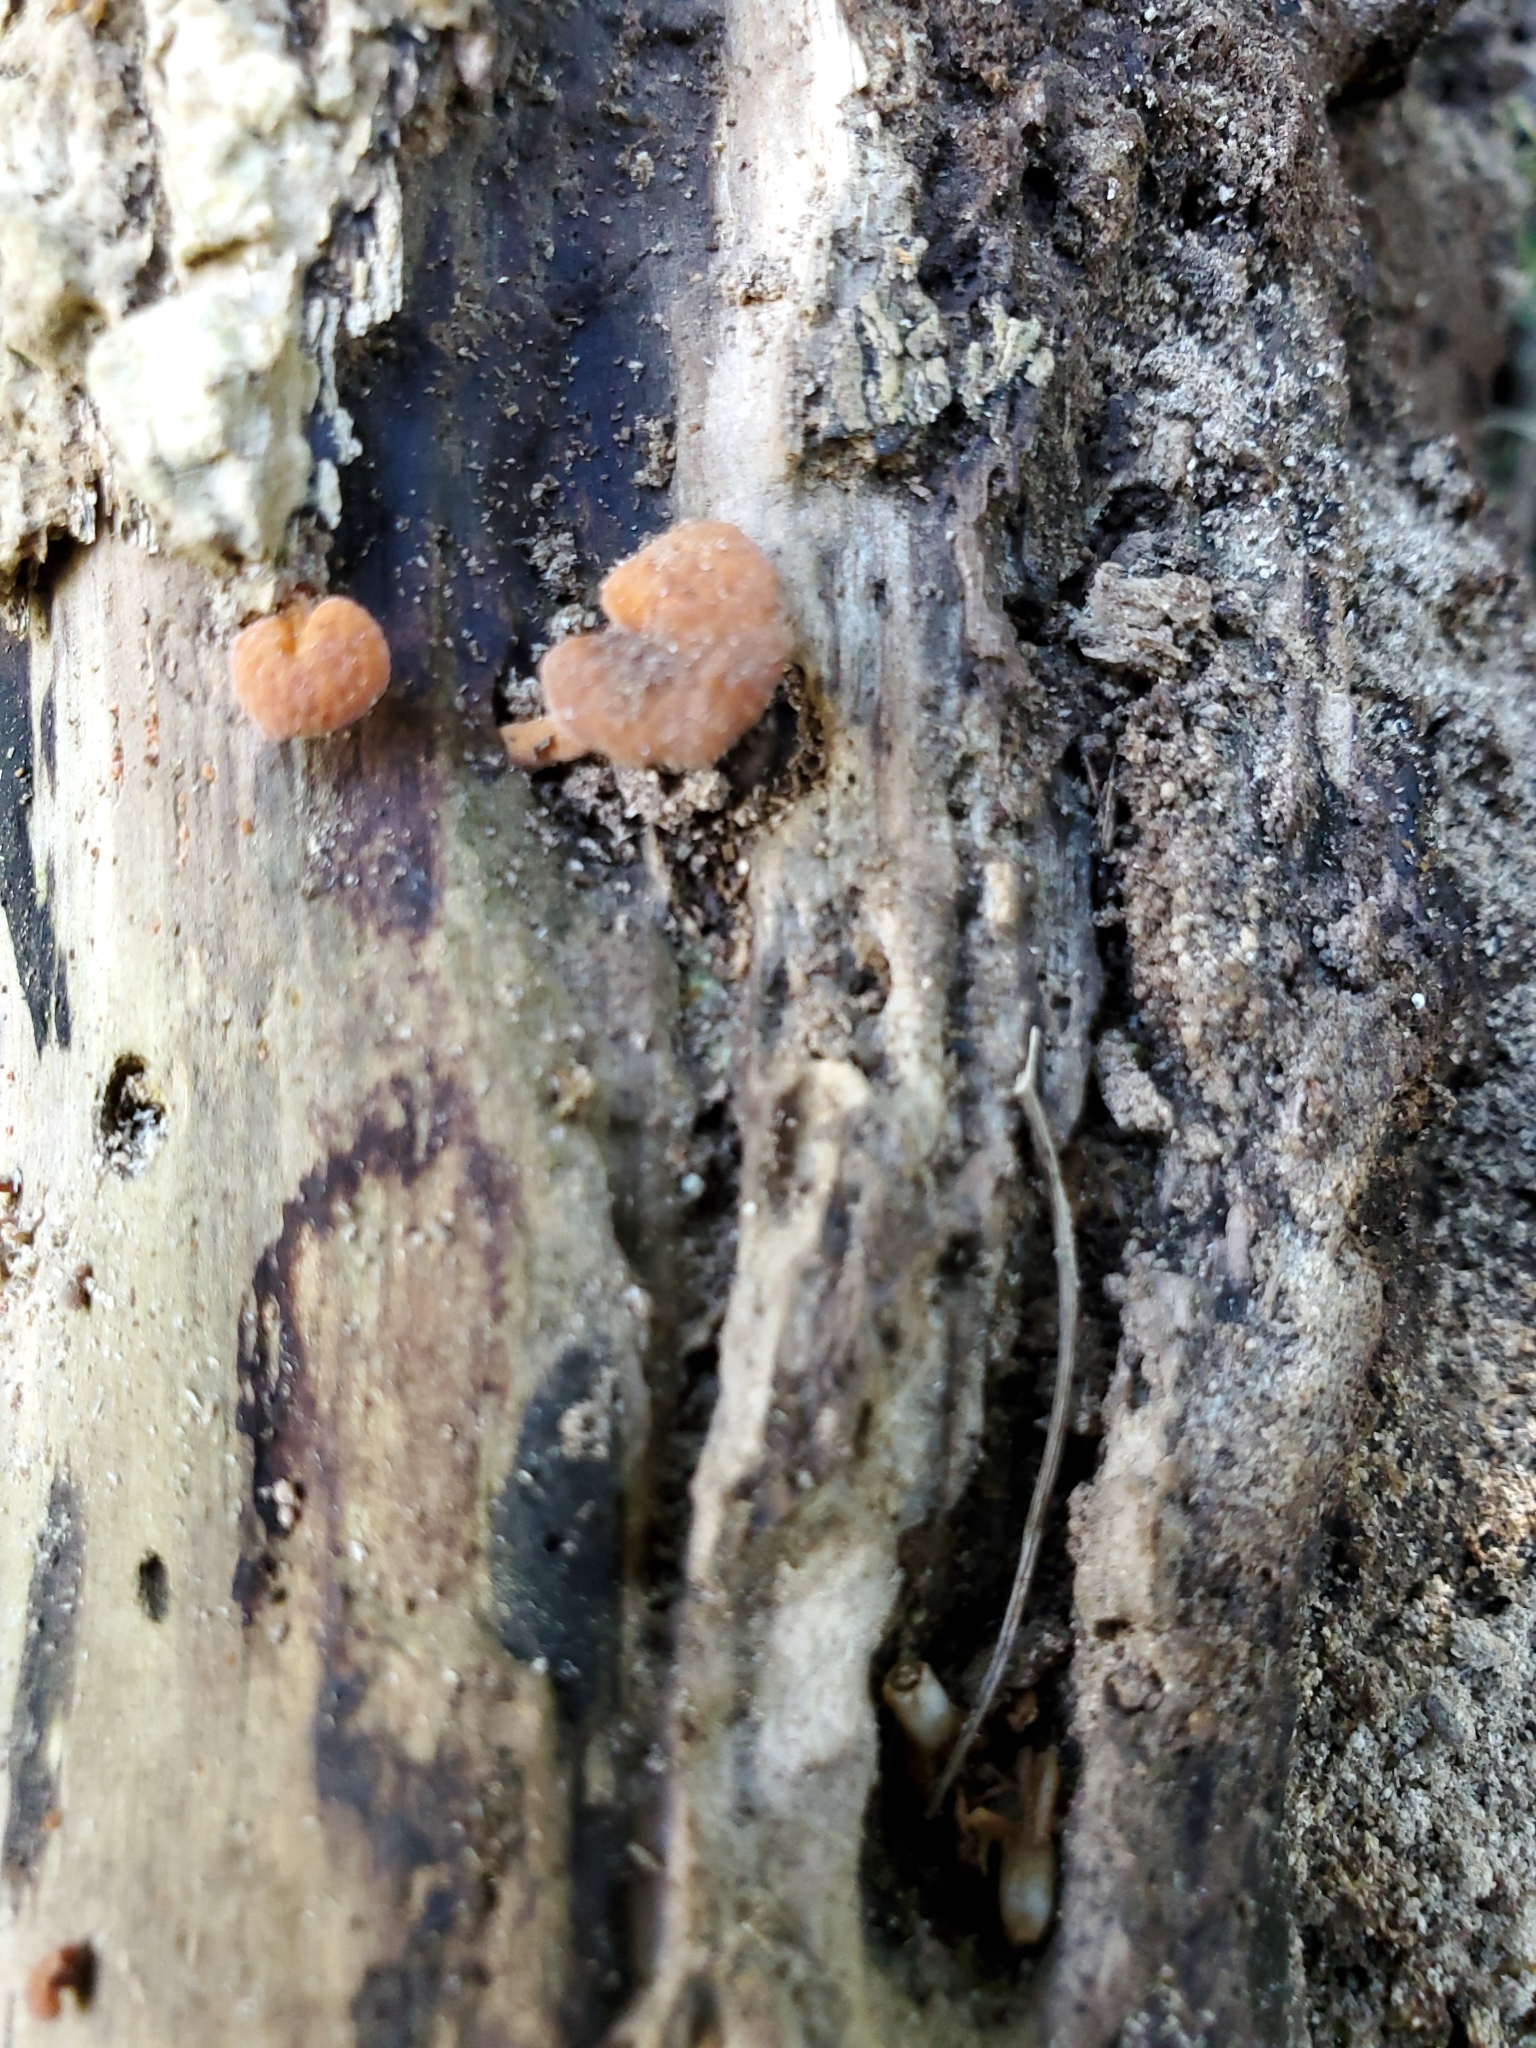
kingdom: Fungi
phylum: Basidiomycota
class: Agaricomycetes
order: Agaricales
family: Mycenaceae
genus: Favolaschia
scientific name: Favolaschia claudopus
